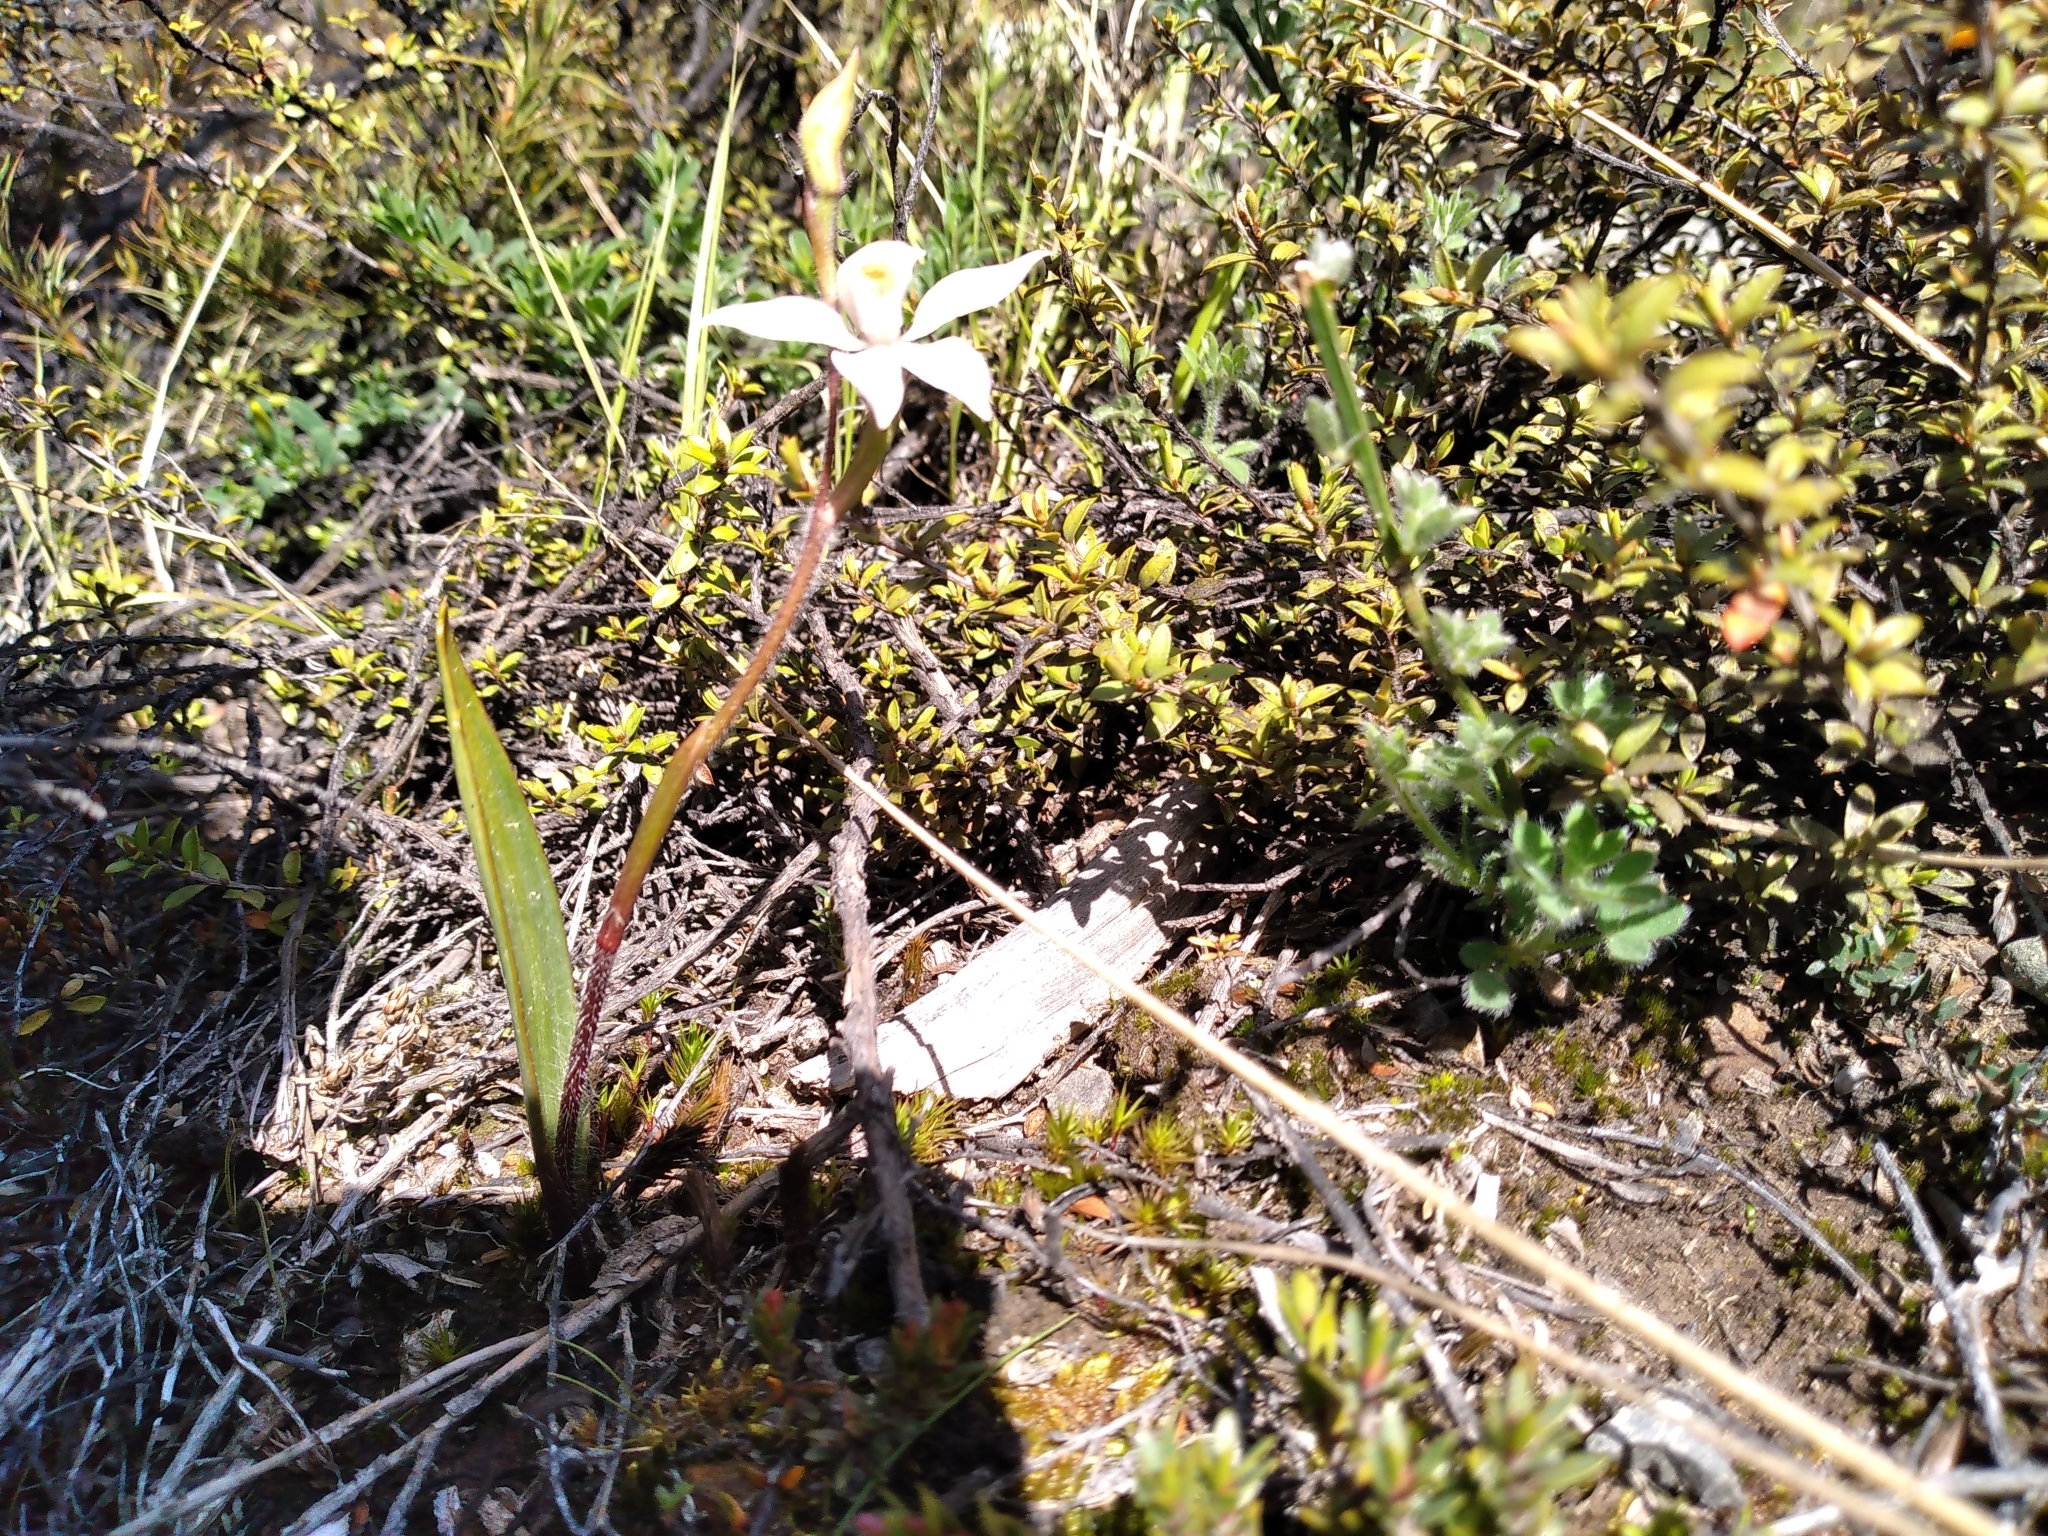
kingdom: Plantae
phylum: Tracheophyta
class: Liliopsida
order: Asparagales
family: Orchidaceae
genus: Caladenia
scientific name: Caladenia lyallii
